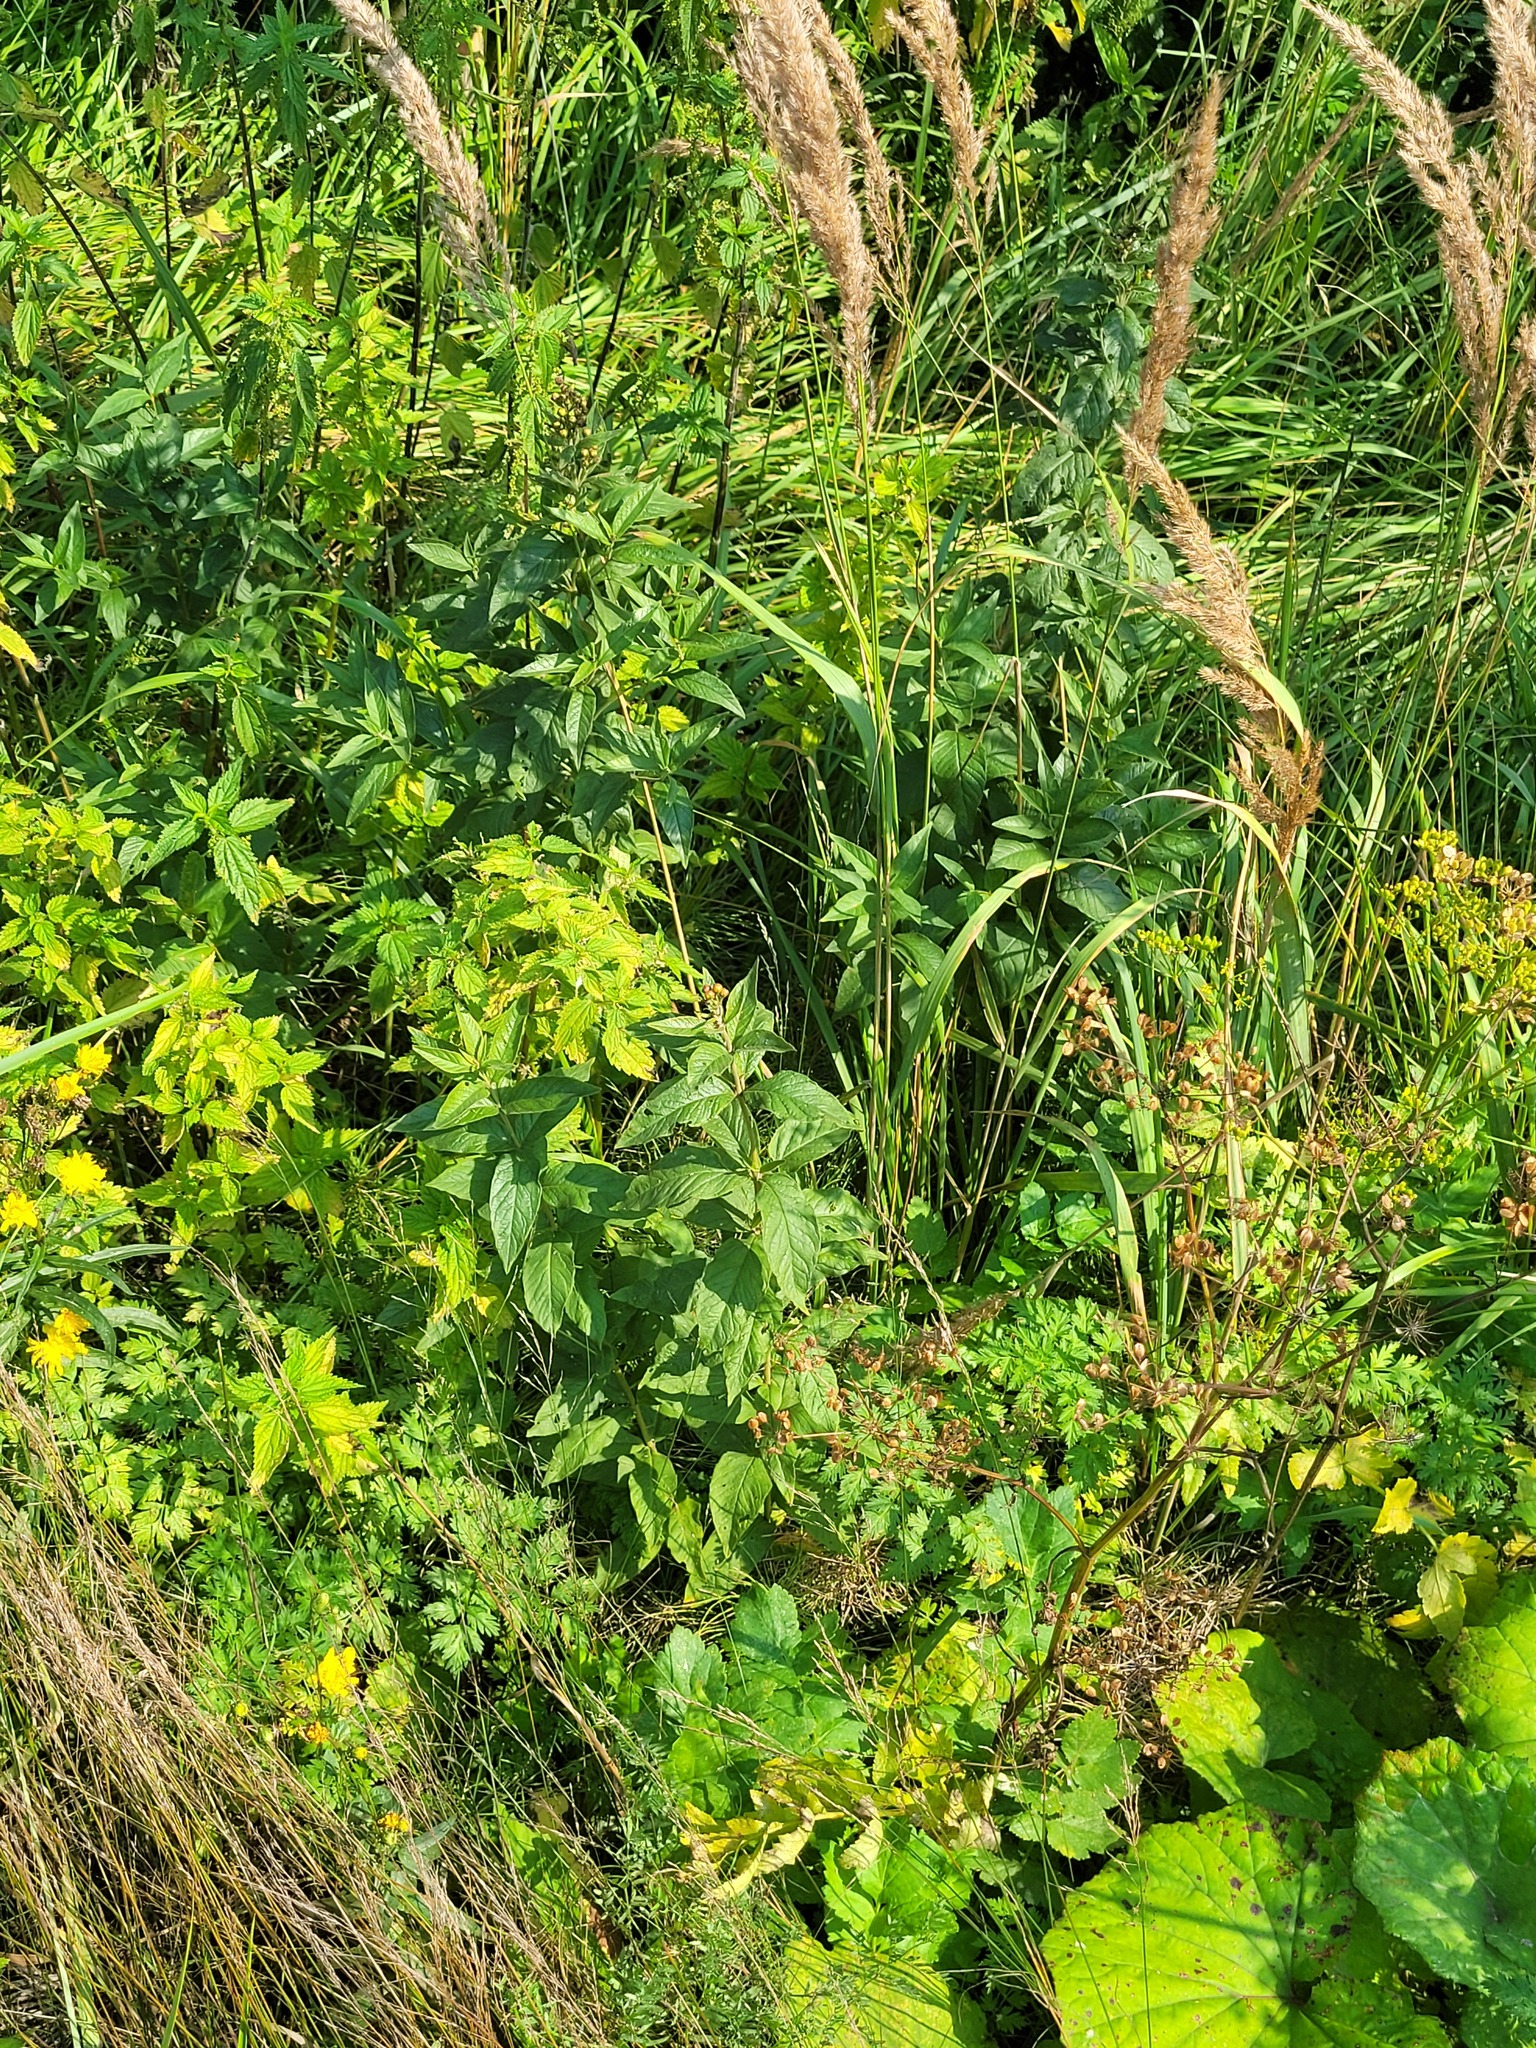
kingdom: Plantae
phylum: Tracheophyta
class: Magnoliopsida
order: Ericales
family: Primulaceae
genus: Lysimachia
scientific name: Lysimachia vulgaris
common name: Yellow loosestrife
